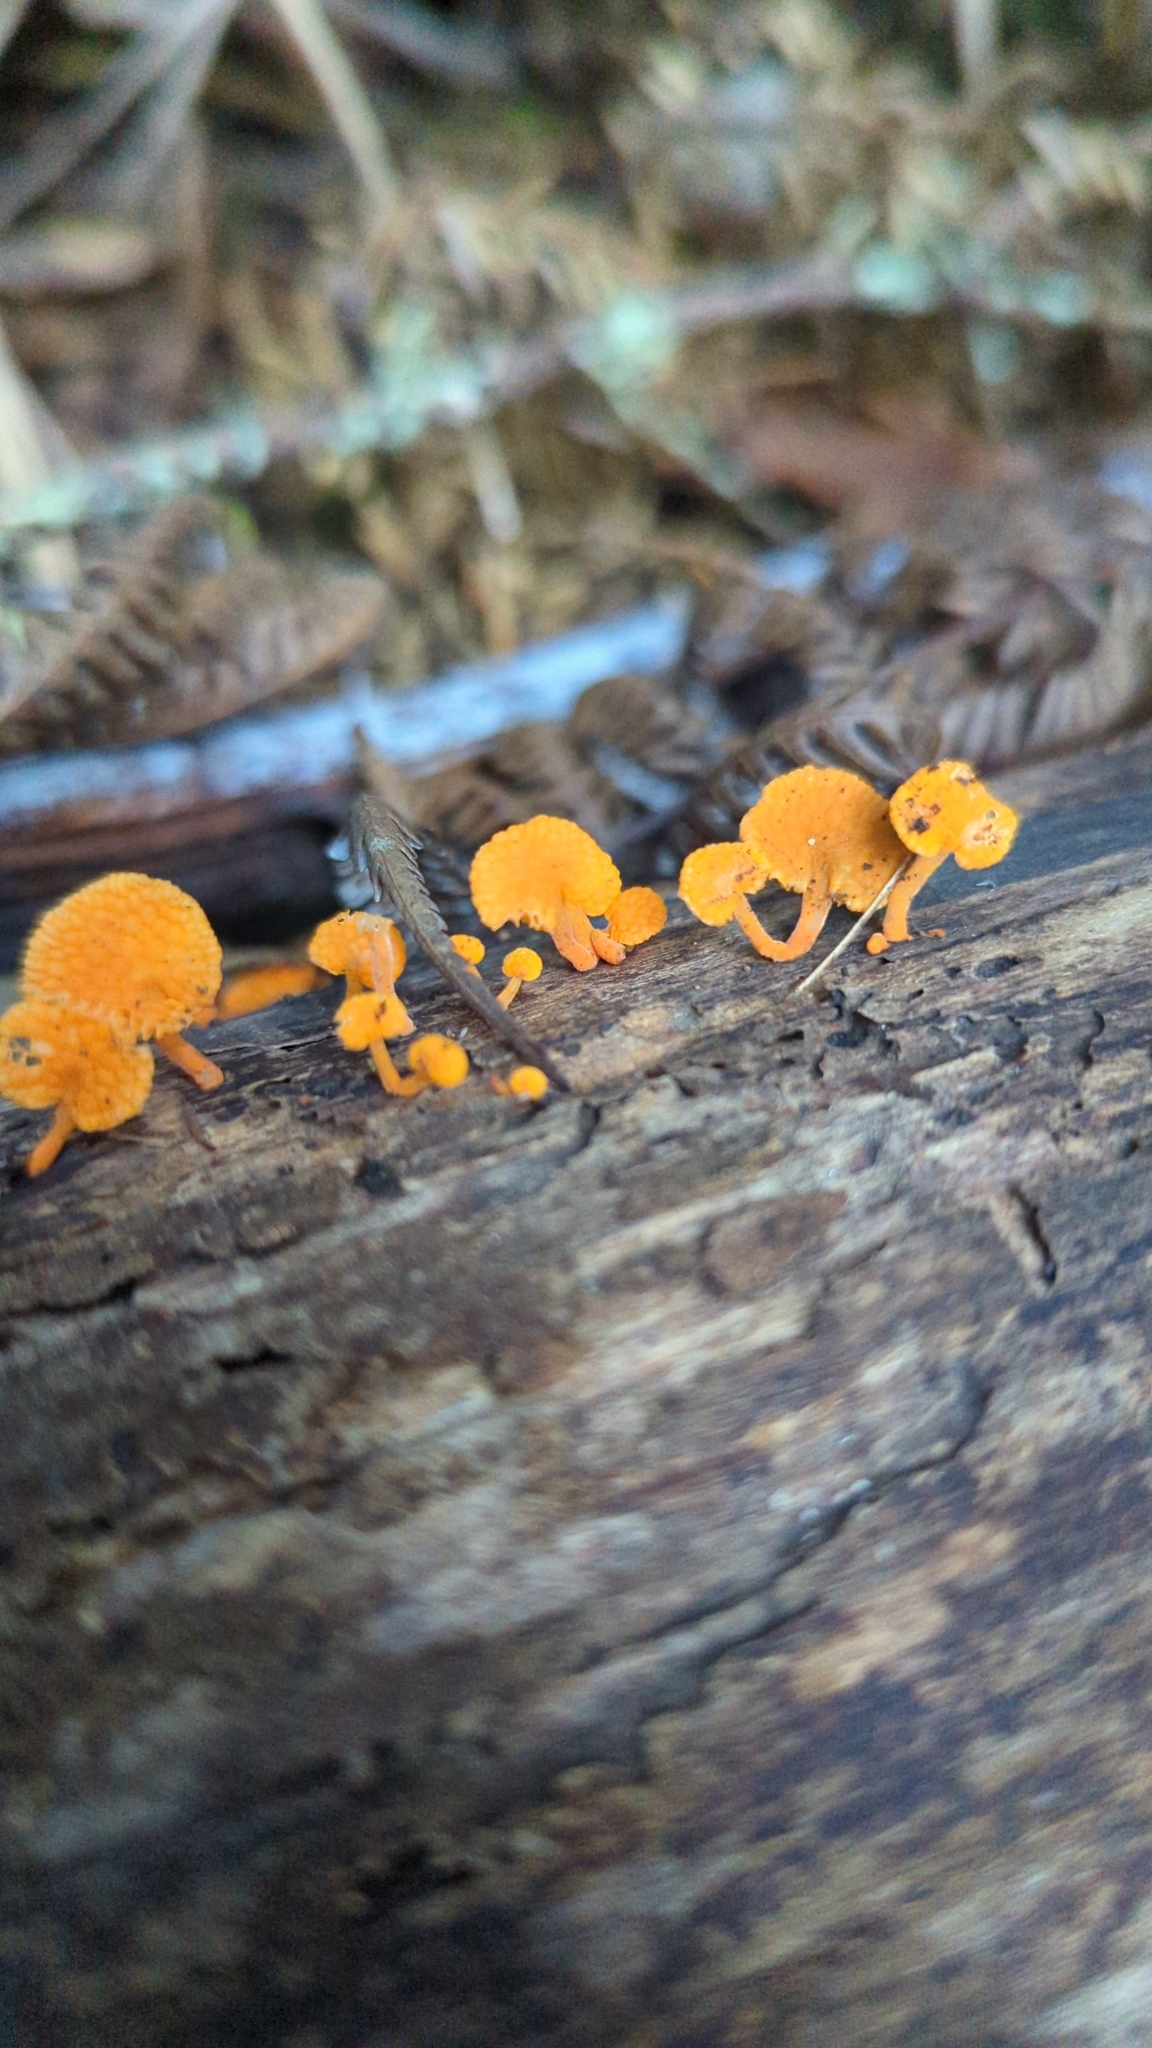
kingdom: Fungi
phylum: Basidiomycota
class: Agaricomycetes
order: Agaricales
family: Mycenaceae
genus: Favolaschia
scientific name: Favolaschia claudopus
